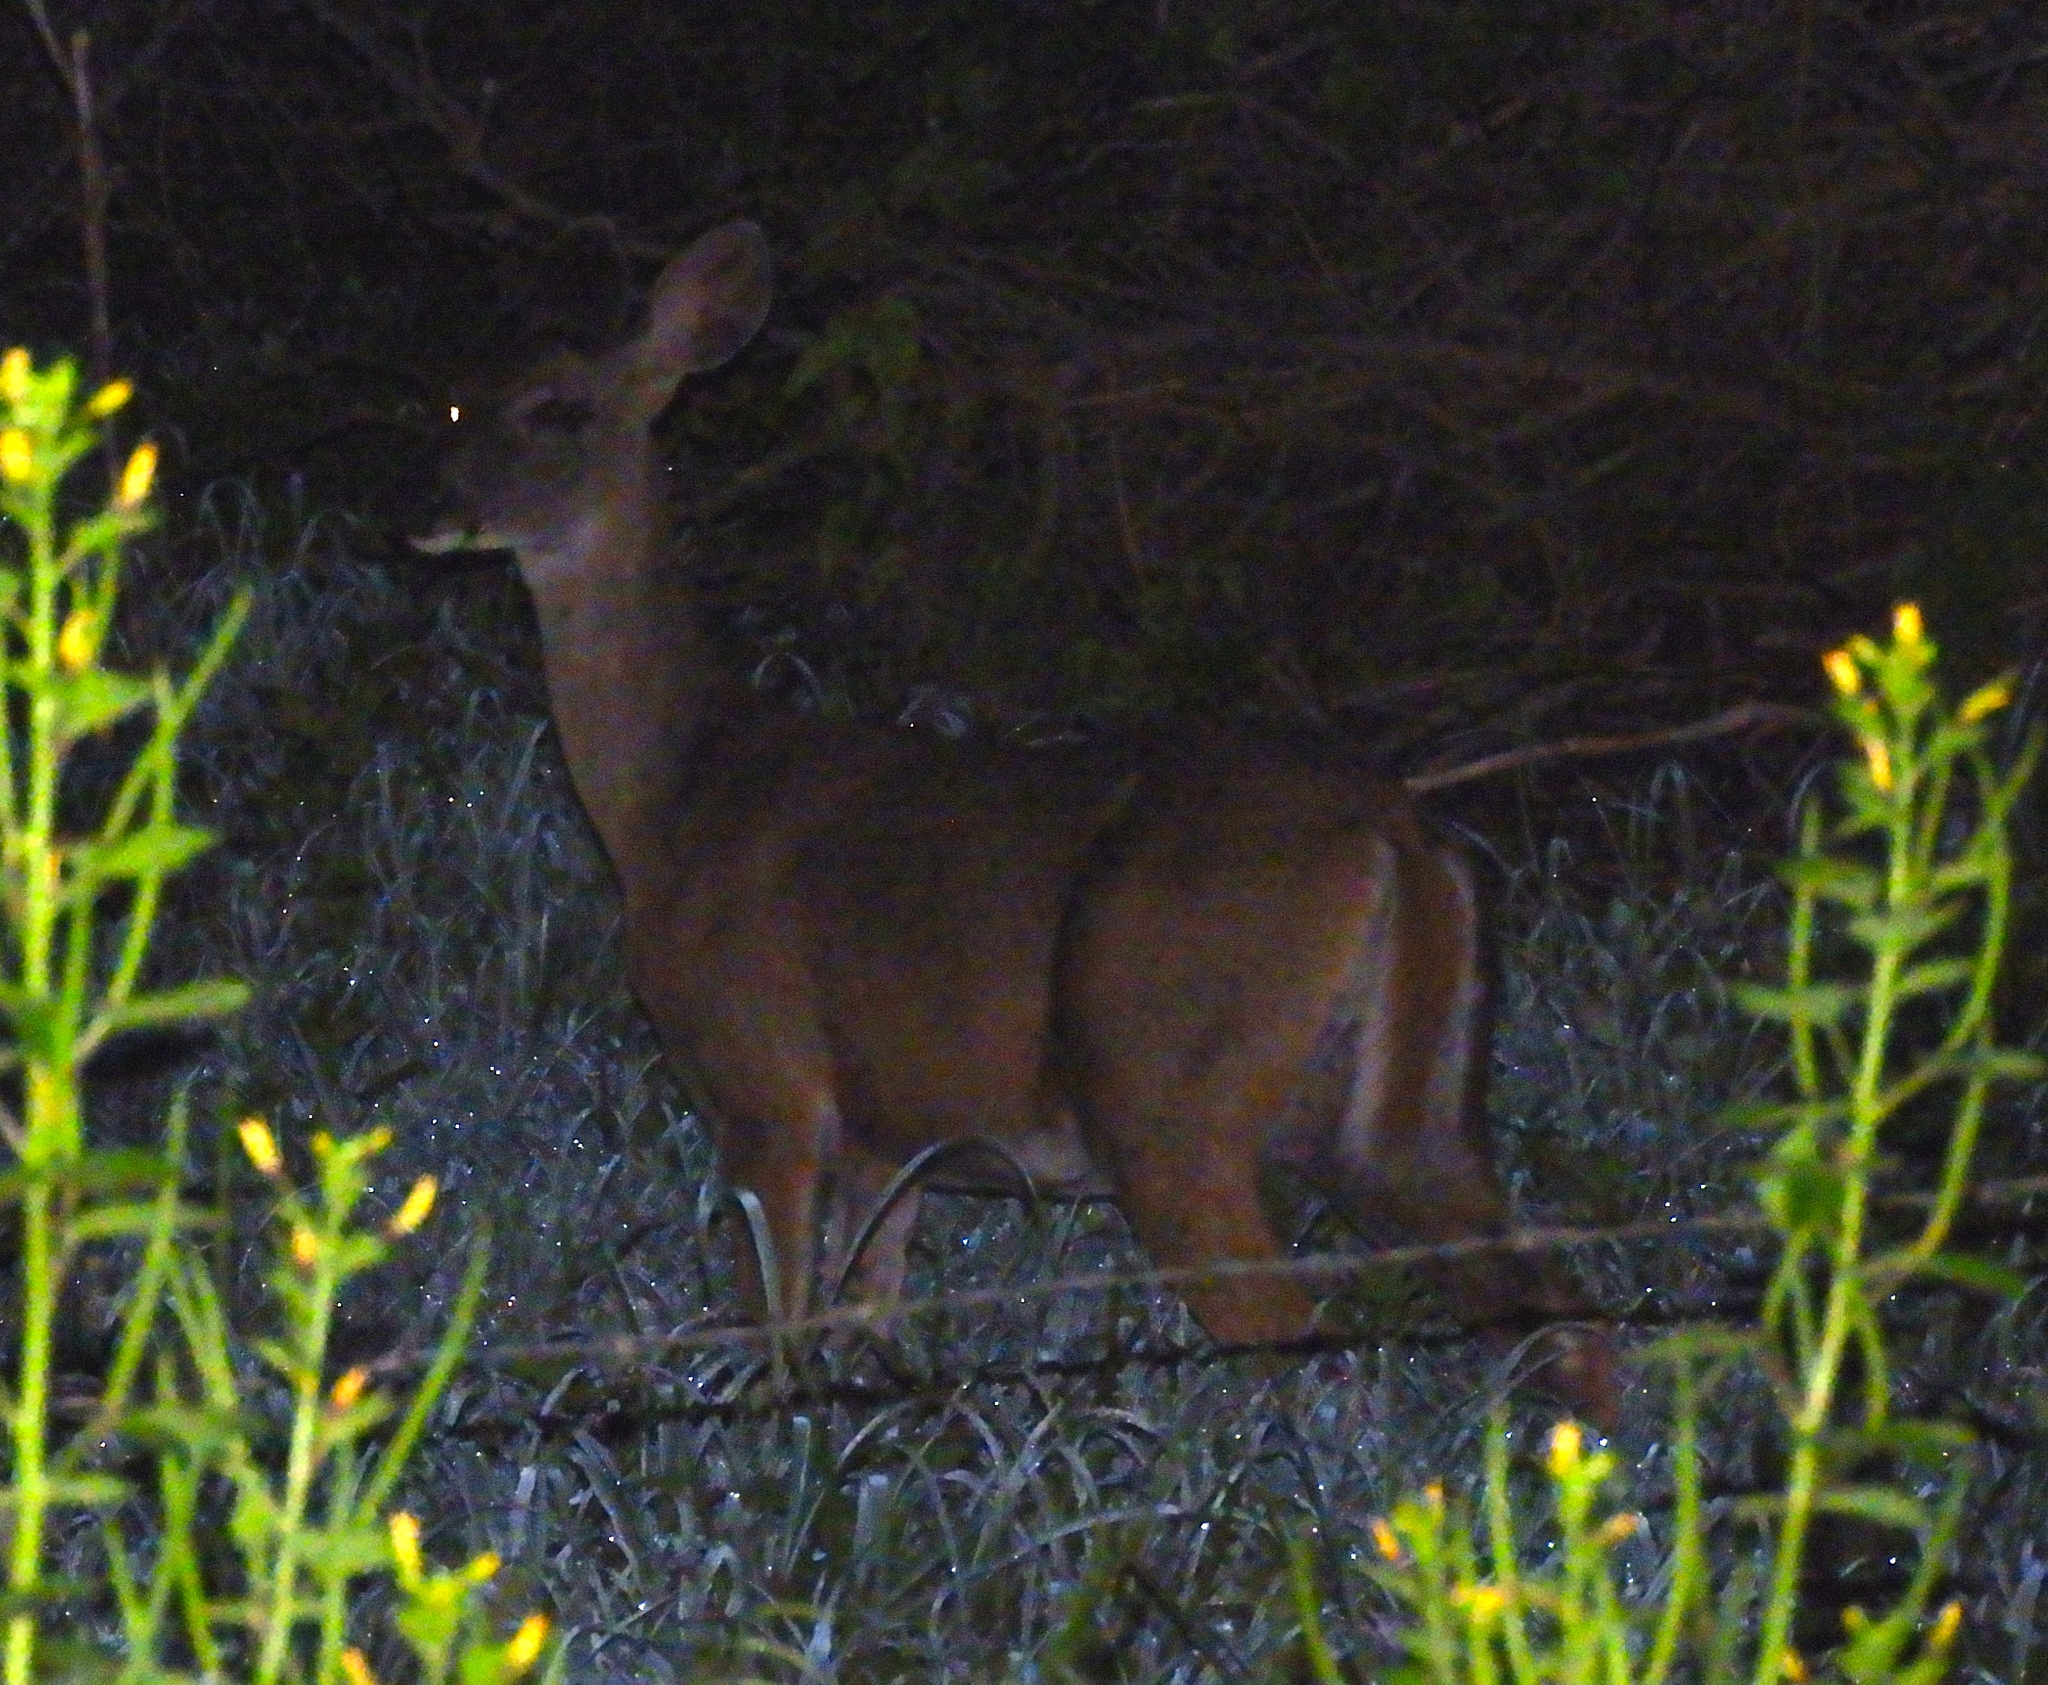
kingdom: Animalia
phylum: Chordata
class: Mammalia
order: Artiodactyla
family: Cervidae
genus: Odocoileus
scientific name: Odocoileus virginianus
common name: White-tailed deer
